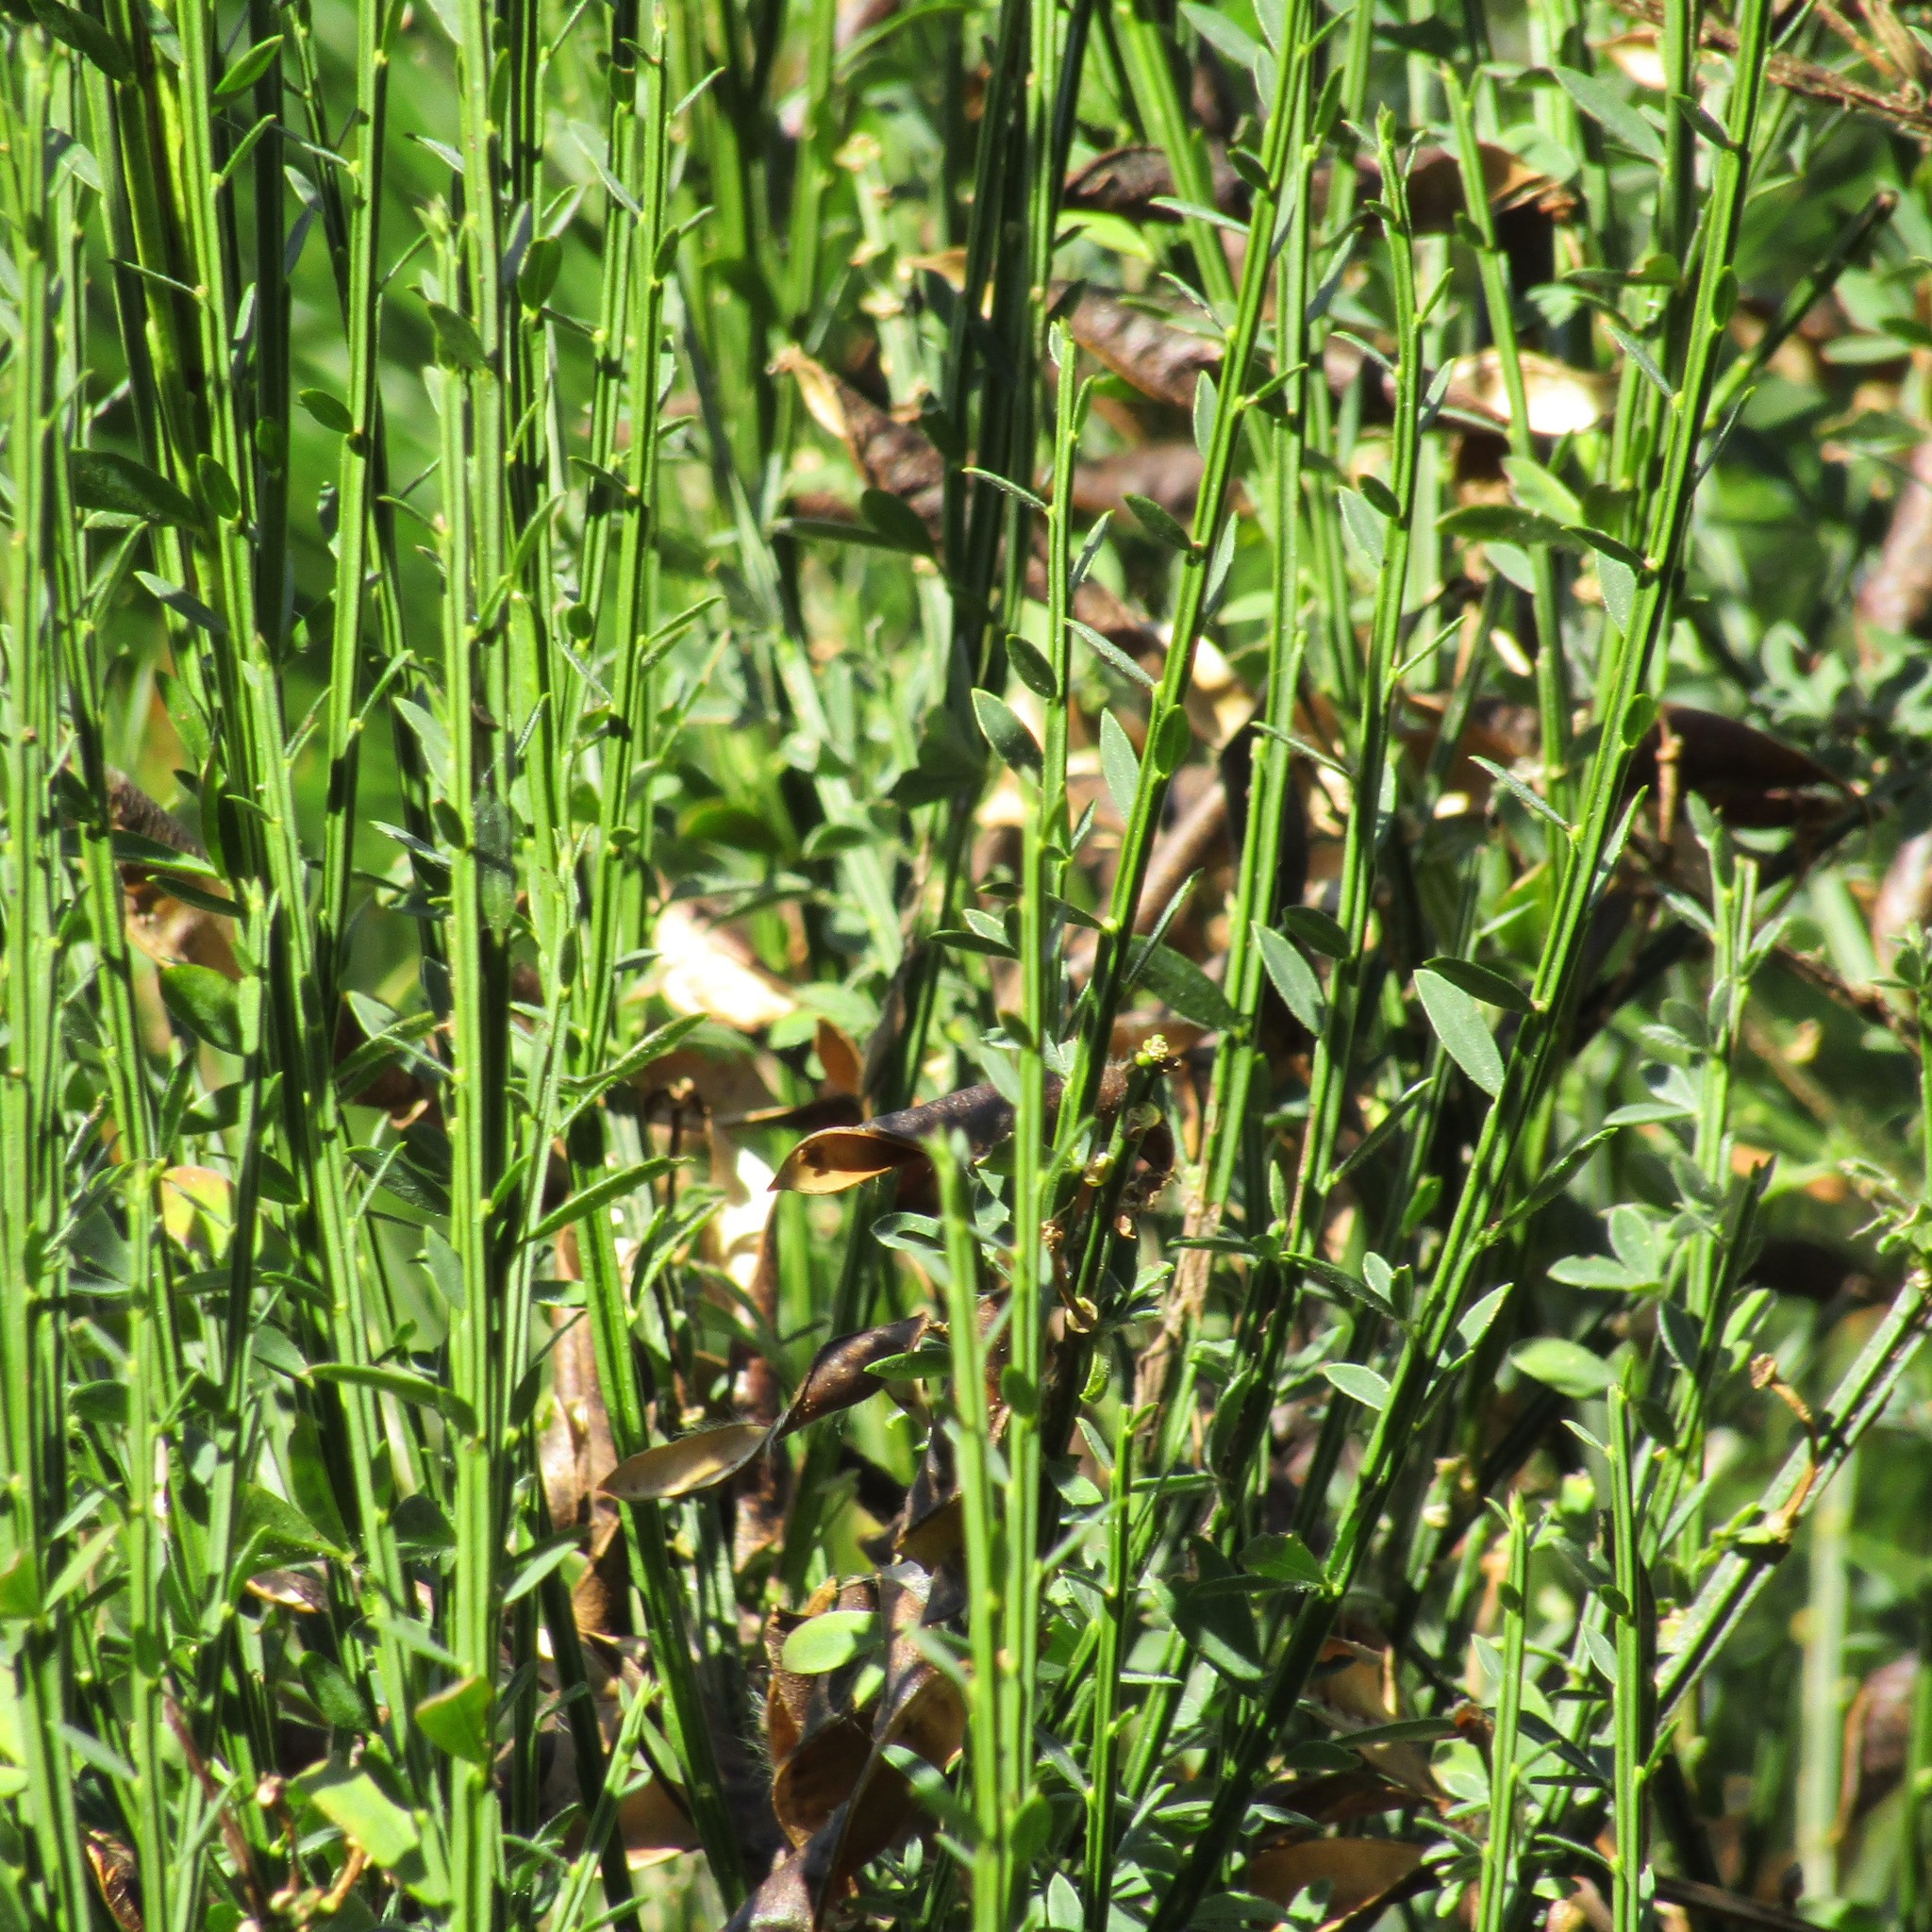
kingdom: Plantae
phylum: Tracheophyta
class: Magnoliopsida
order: Fabales
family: Fabaceae
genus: Cytisus
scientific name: Cytisus scoparius
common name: Scotch broom
